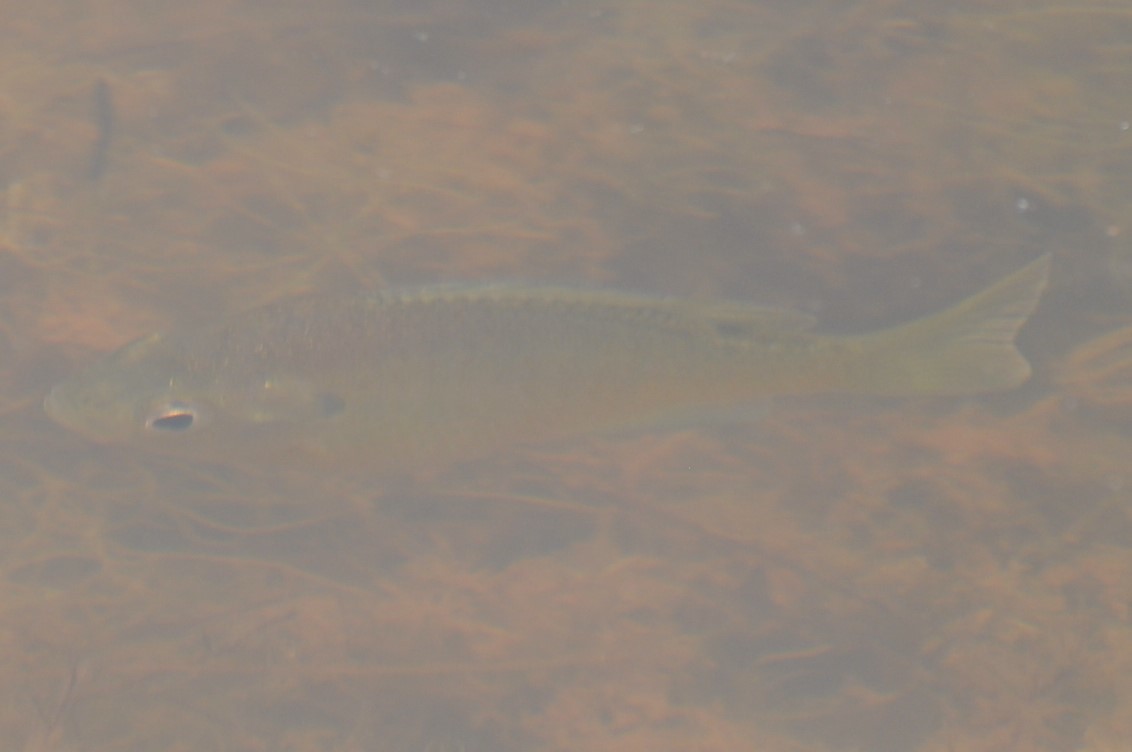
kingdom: Animalia
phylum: Chordata
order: Perciformes
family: Centrarchidae
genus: Lepomis
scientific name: Lepomis macrochirus
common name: Bluegill
